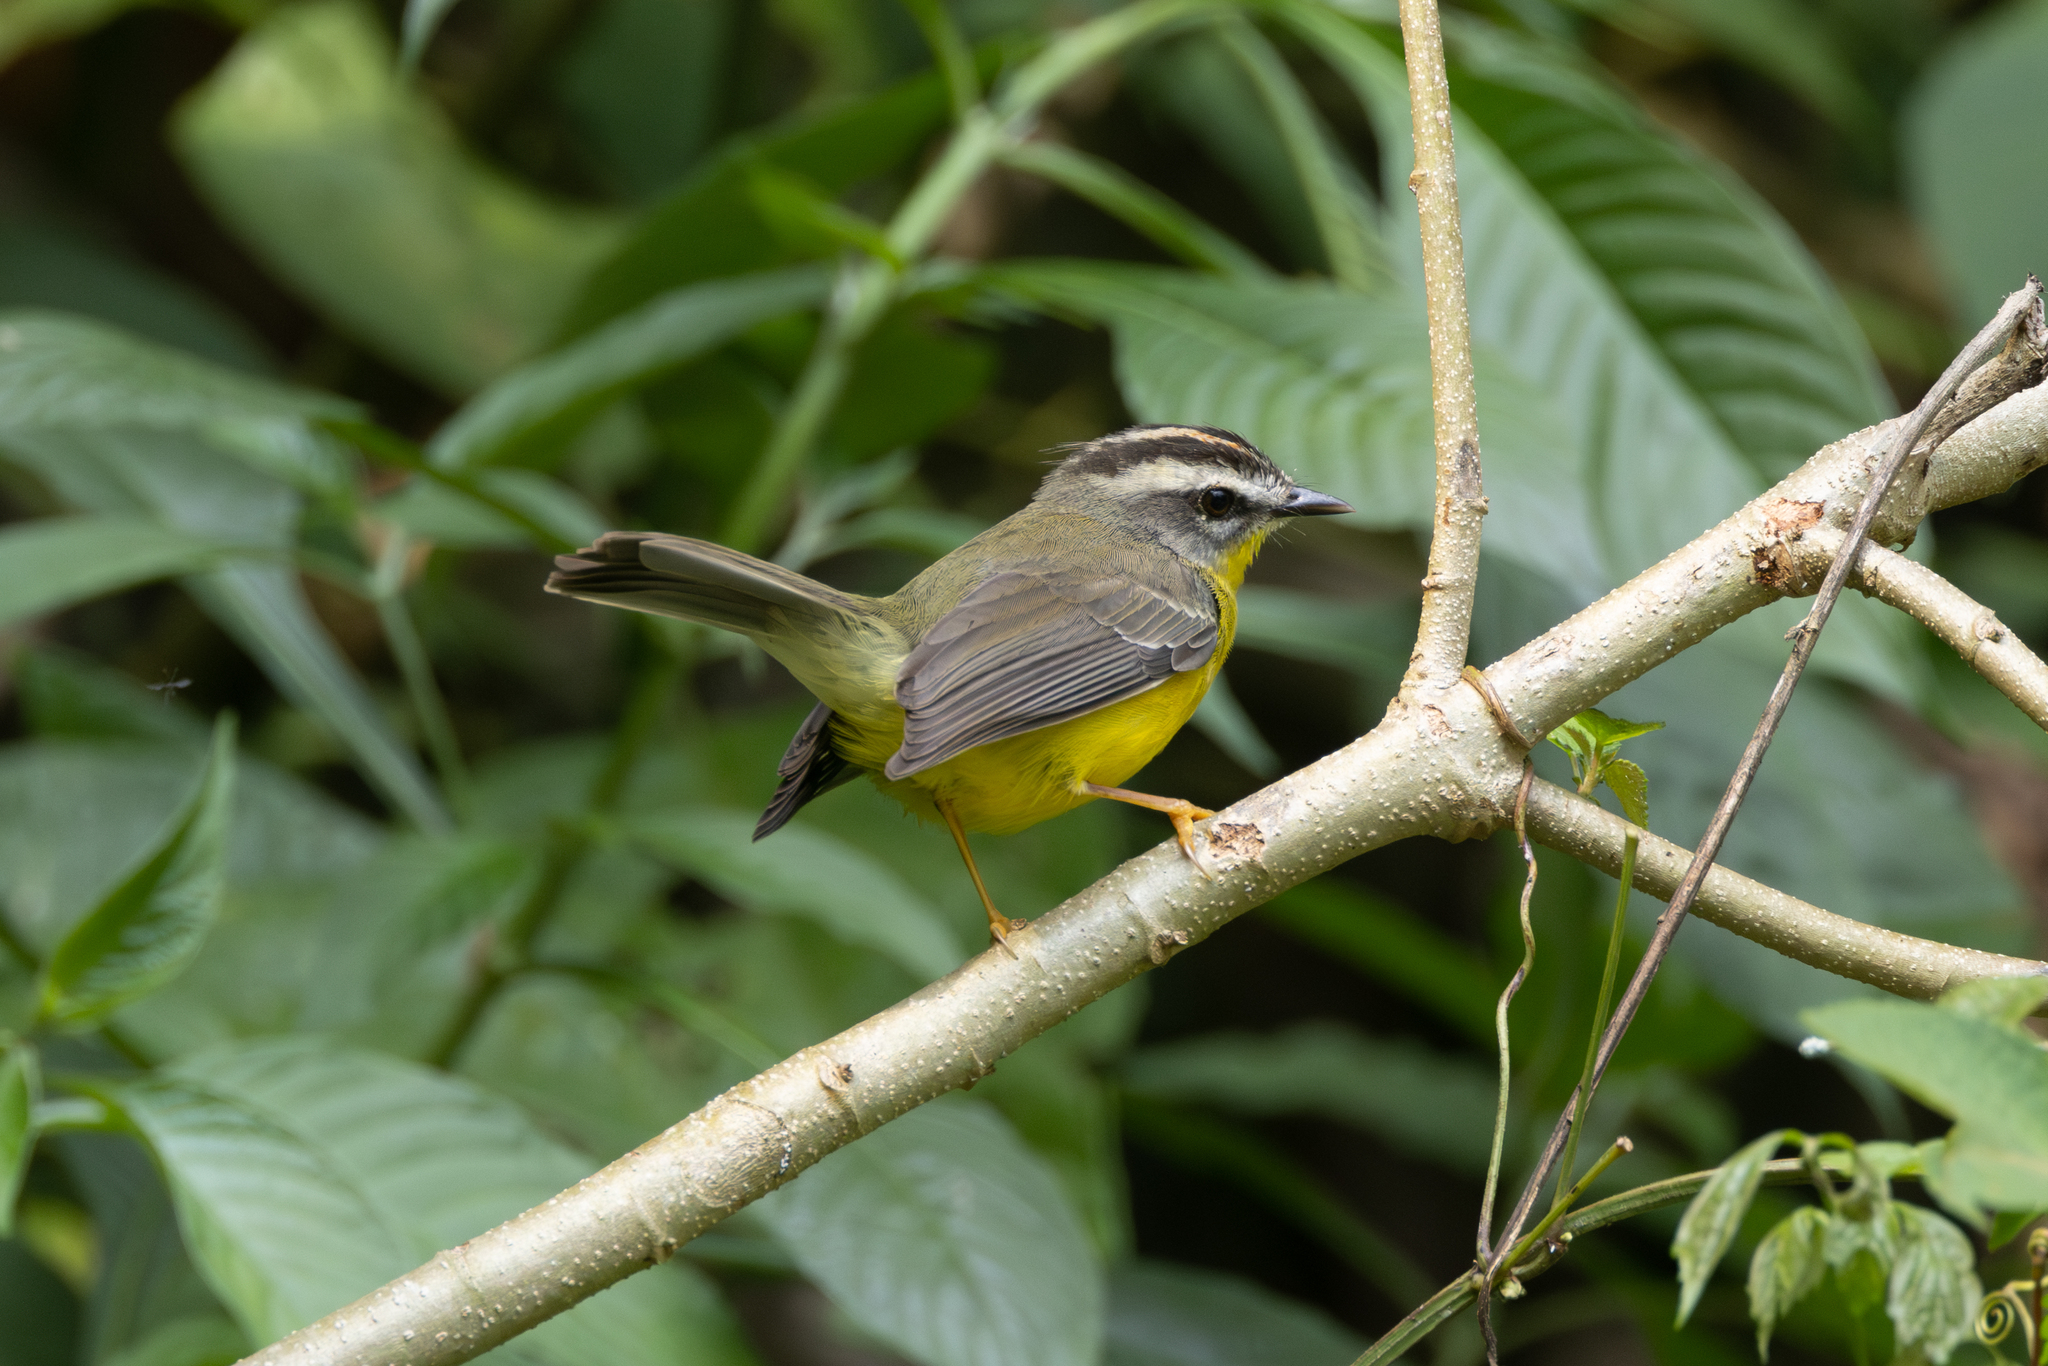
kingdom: Animalia
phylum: Chordata
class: Aves
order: Passeriformes
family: Parulidae
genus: Basileuterus
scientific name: Basileuterus culicivorus
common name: Golden-crowned warbler
